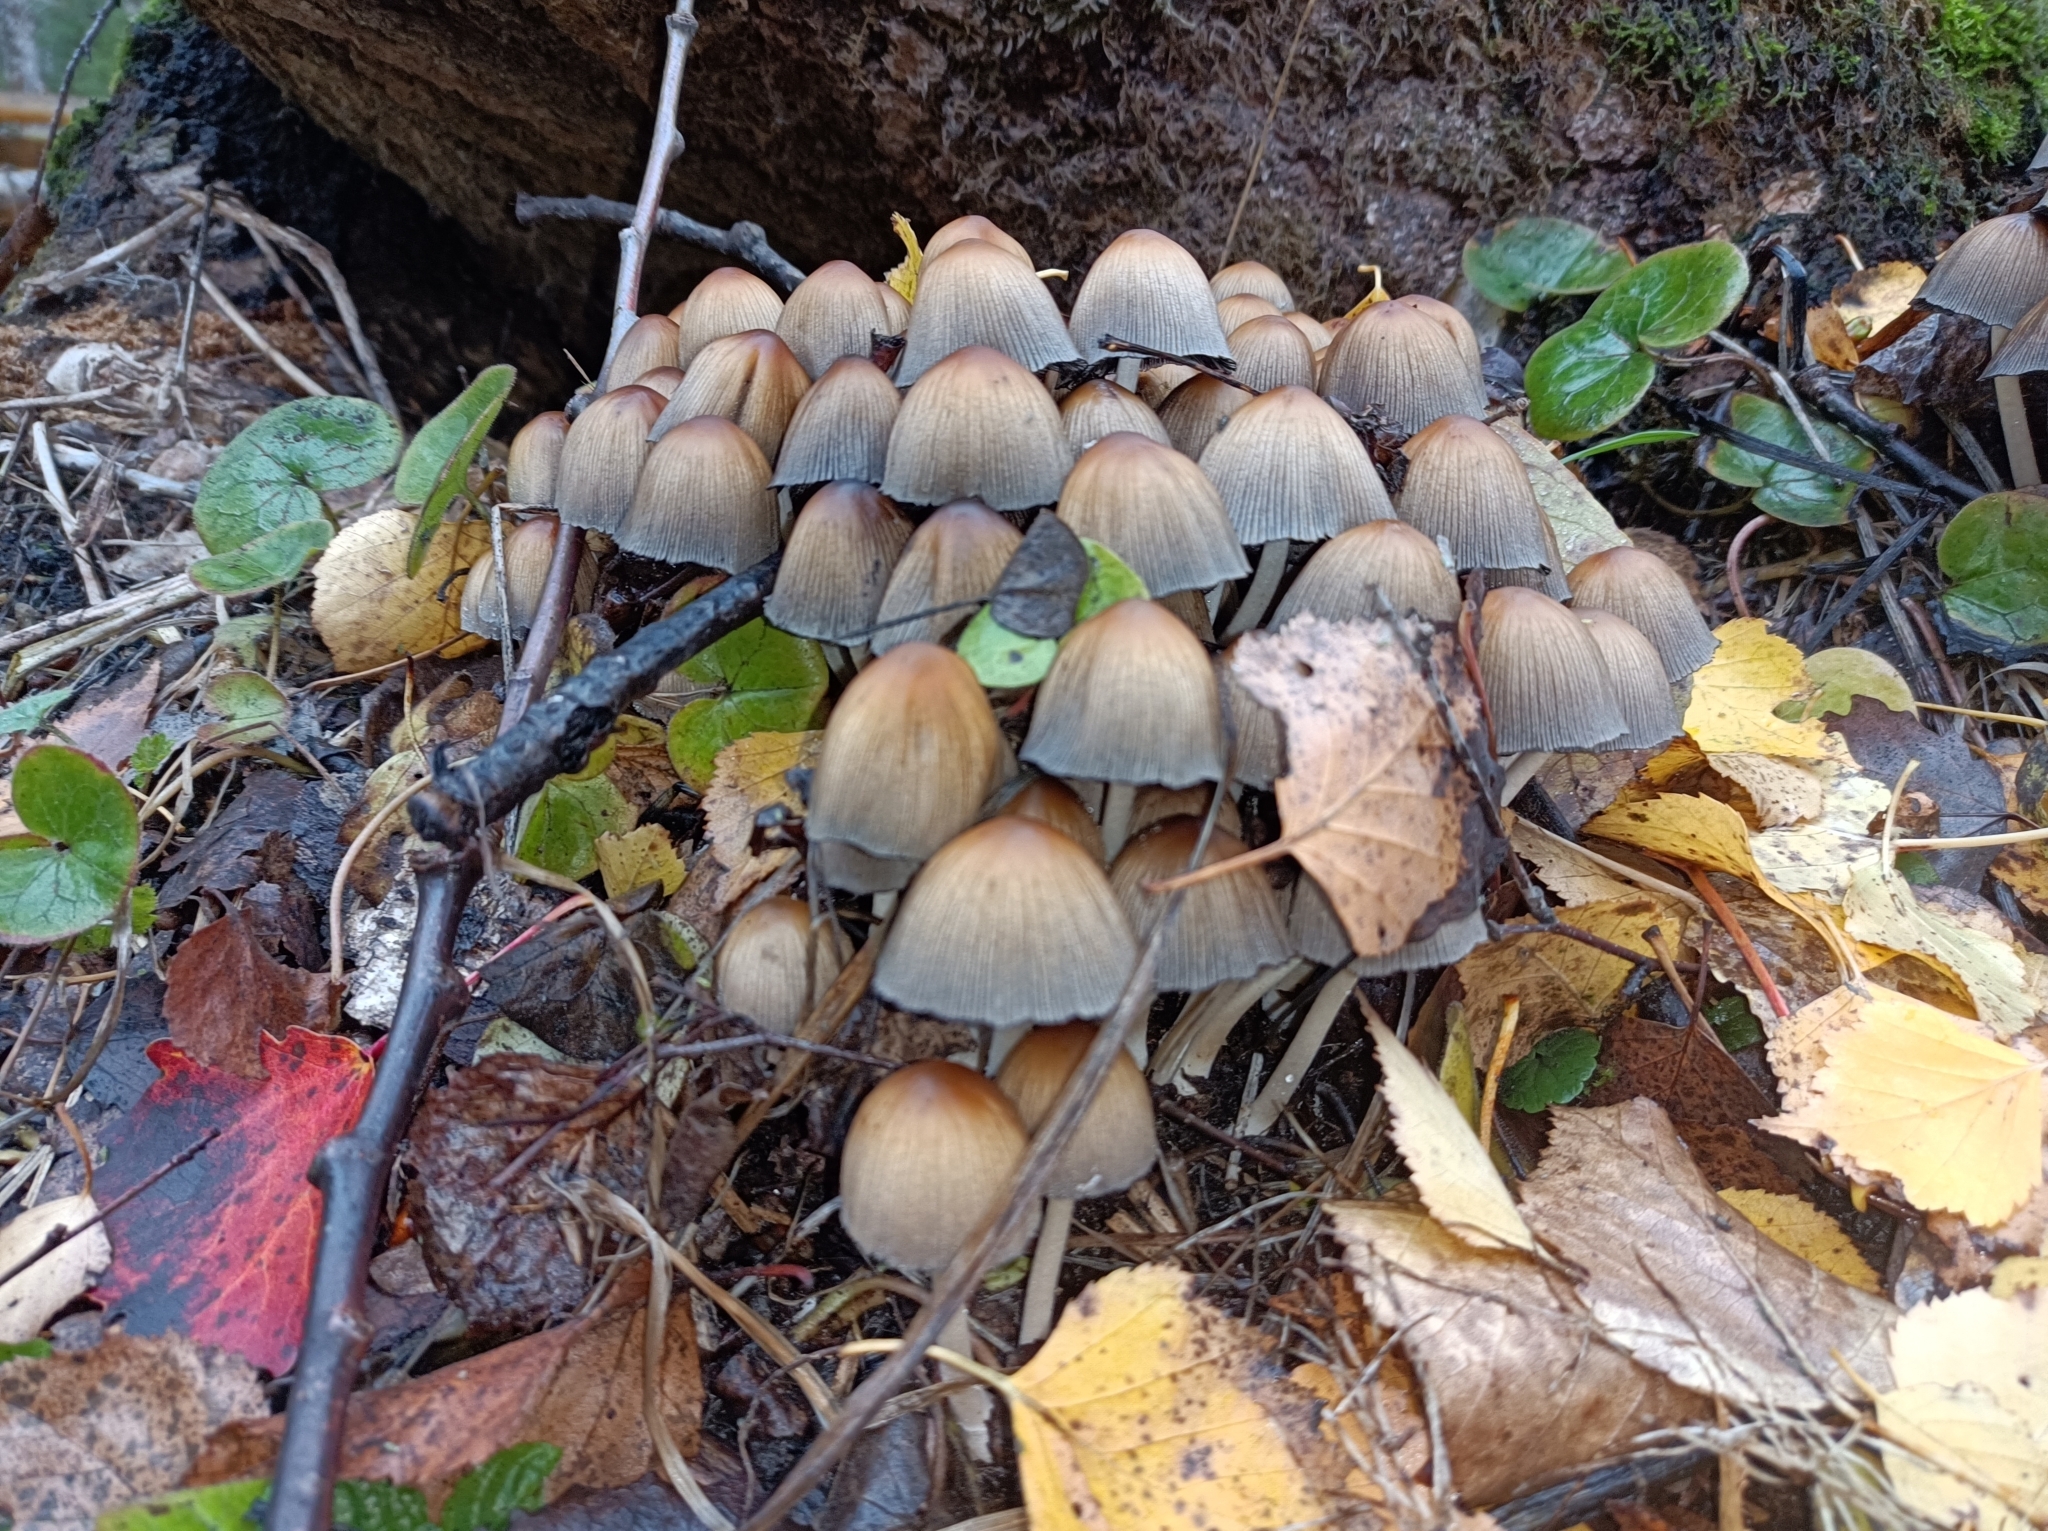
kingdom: Fungi
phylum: Basidiomycota
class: Agaricomycetes
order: Agaricales
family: Psathyrellaceae
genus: Coprinellus
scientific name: Coprinellus micaceus
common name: Glistening ink-cap
